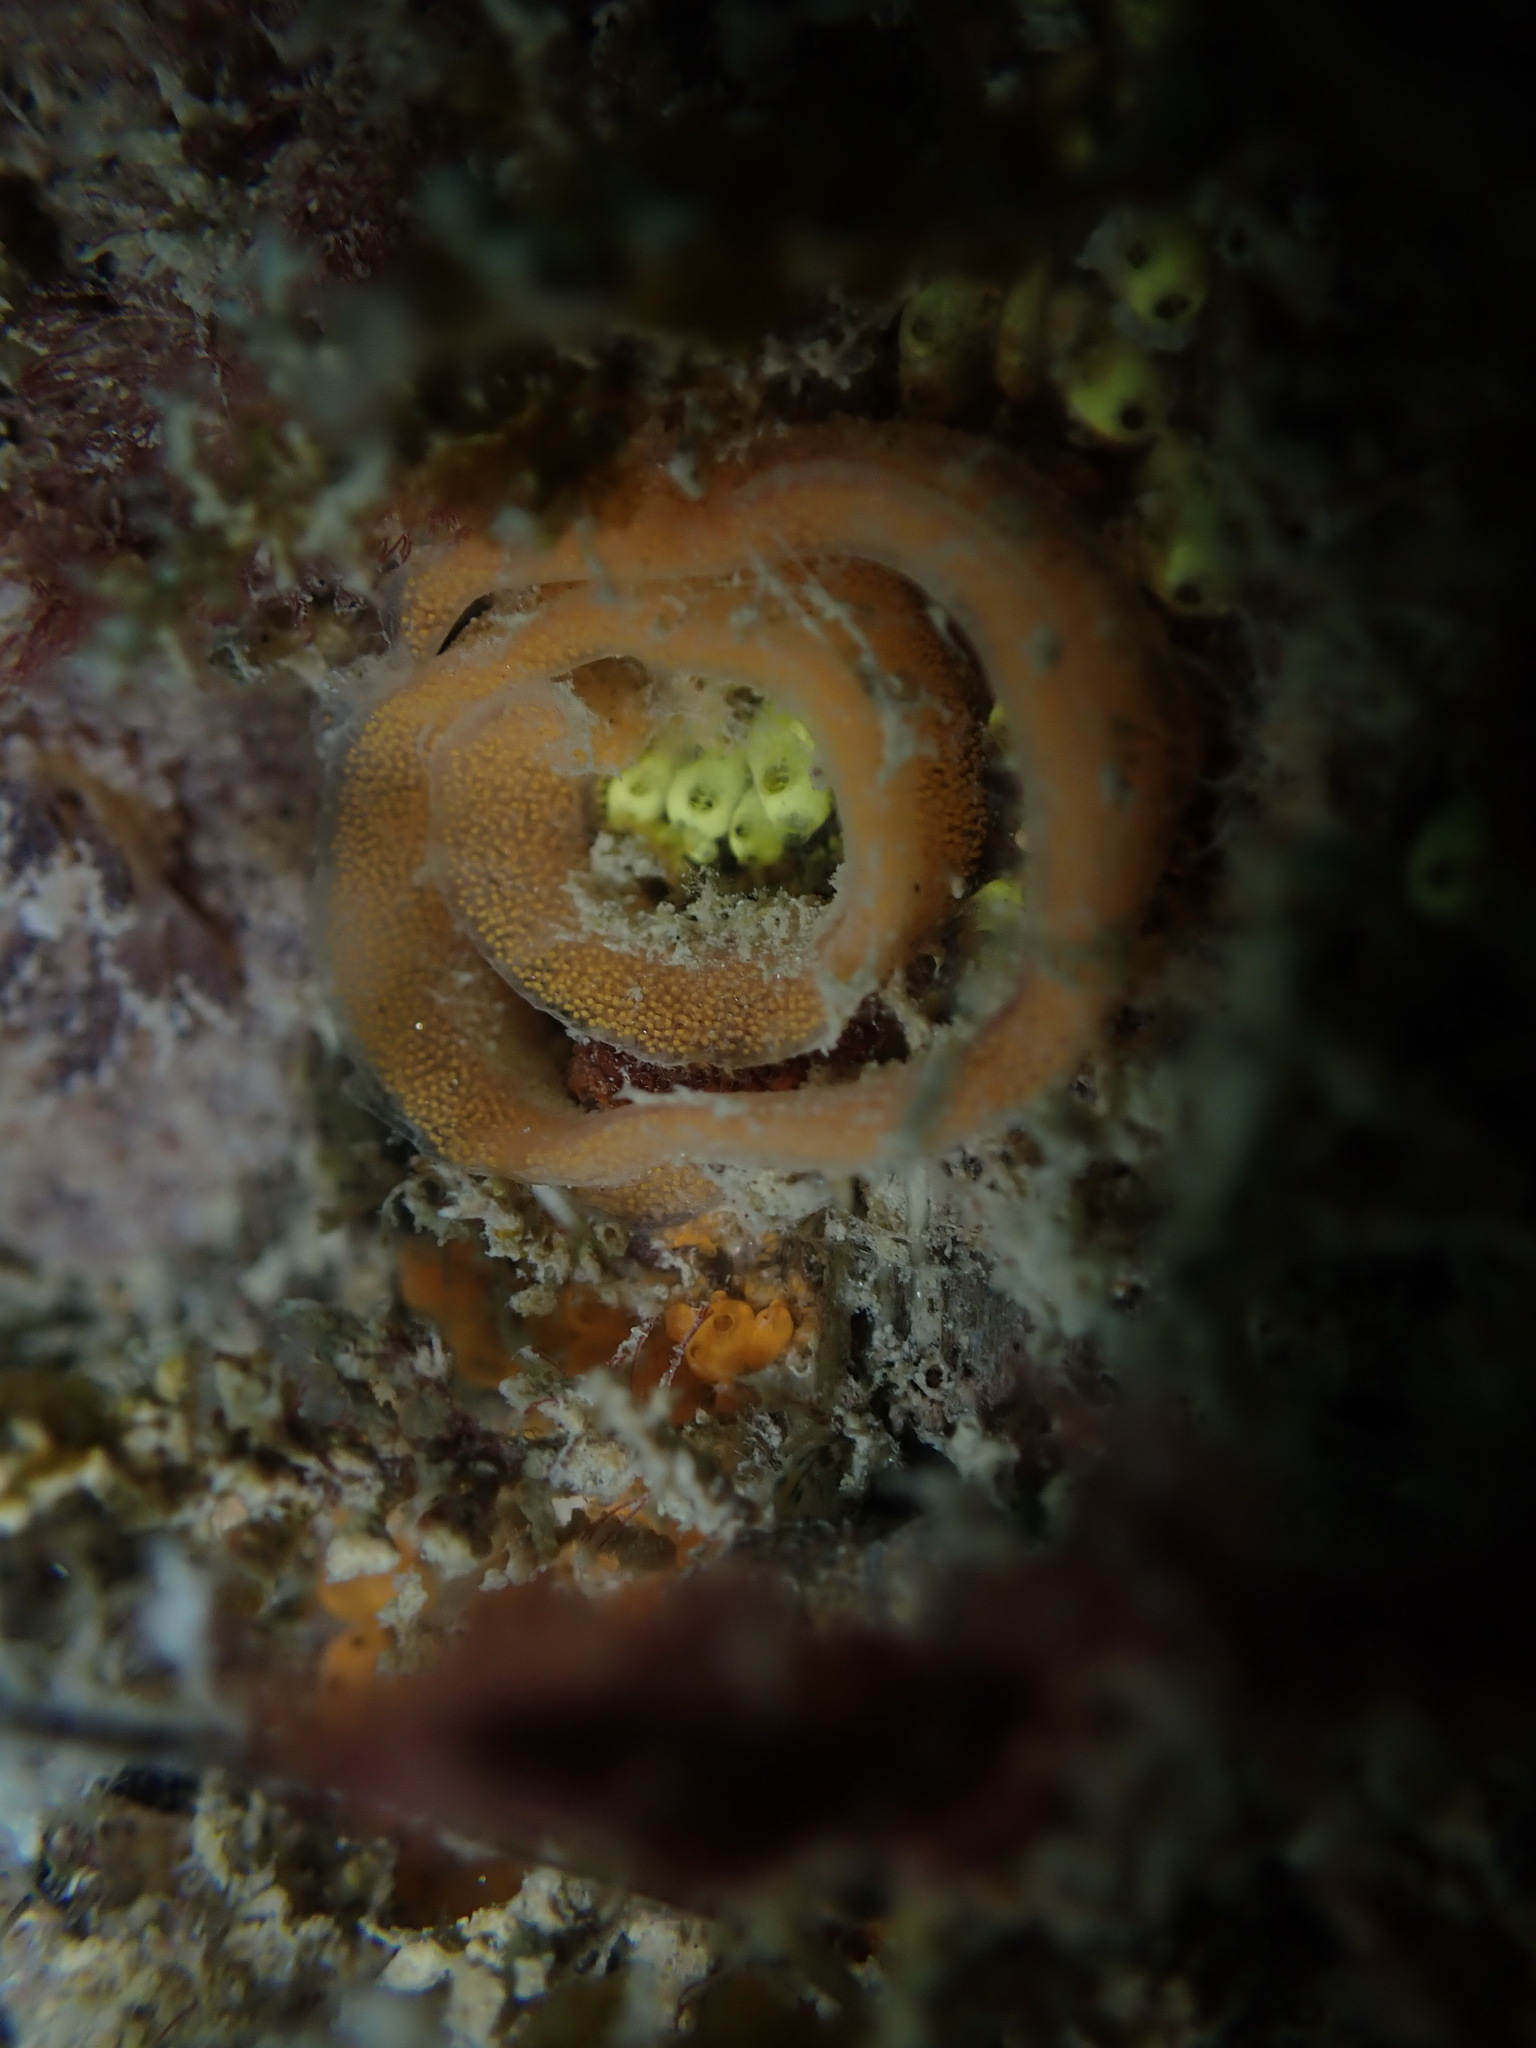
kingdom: Animalia
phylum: Mollusca
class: Gastropoda
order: Nudibranchia
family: Discodorididae
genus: Rostanga
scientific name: Rostanga muscula
